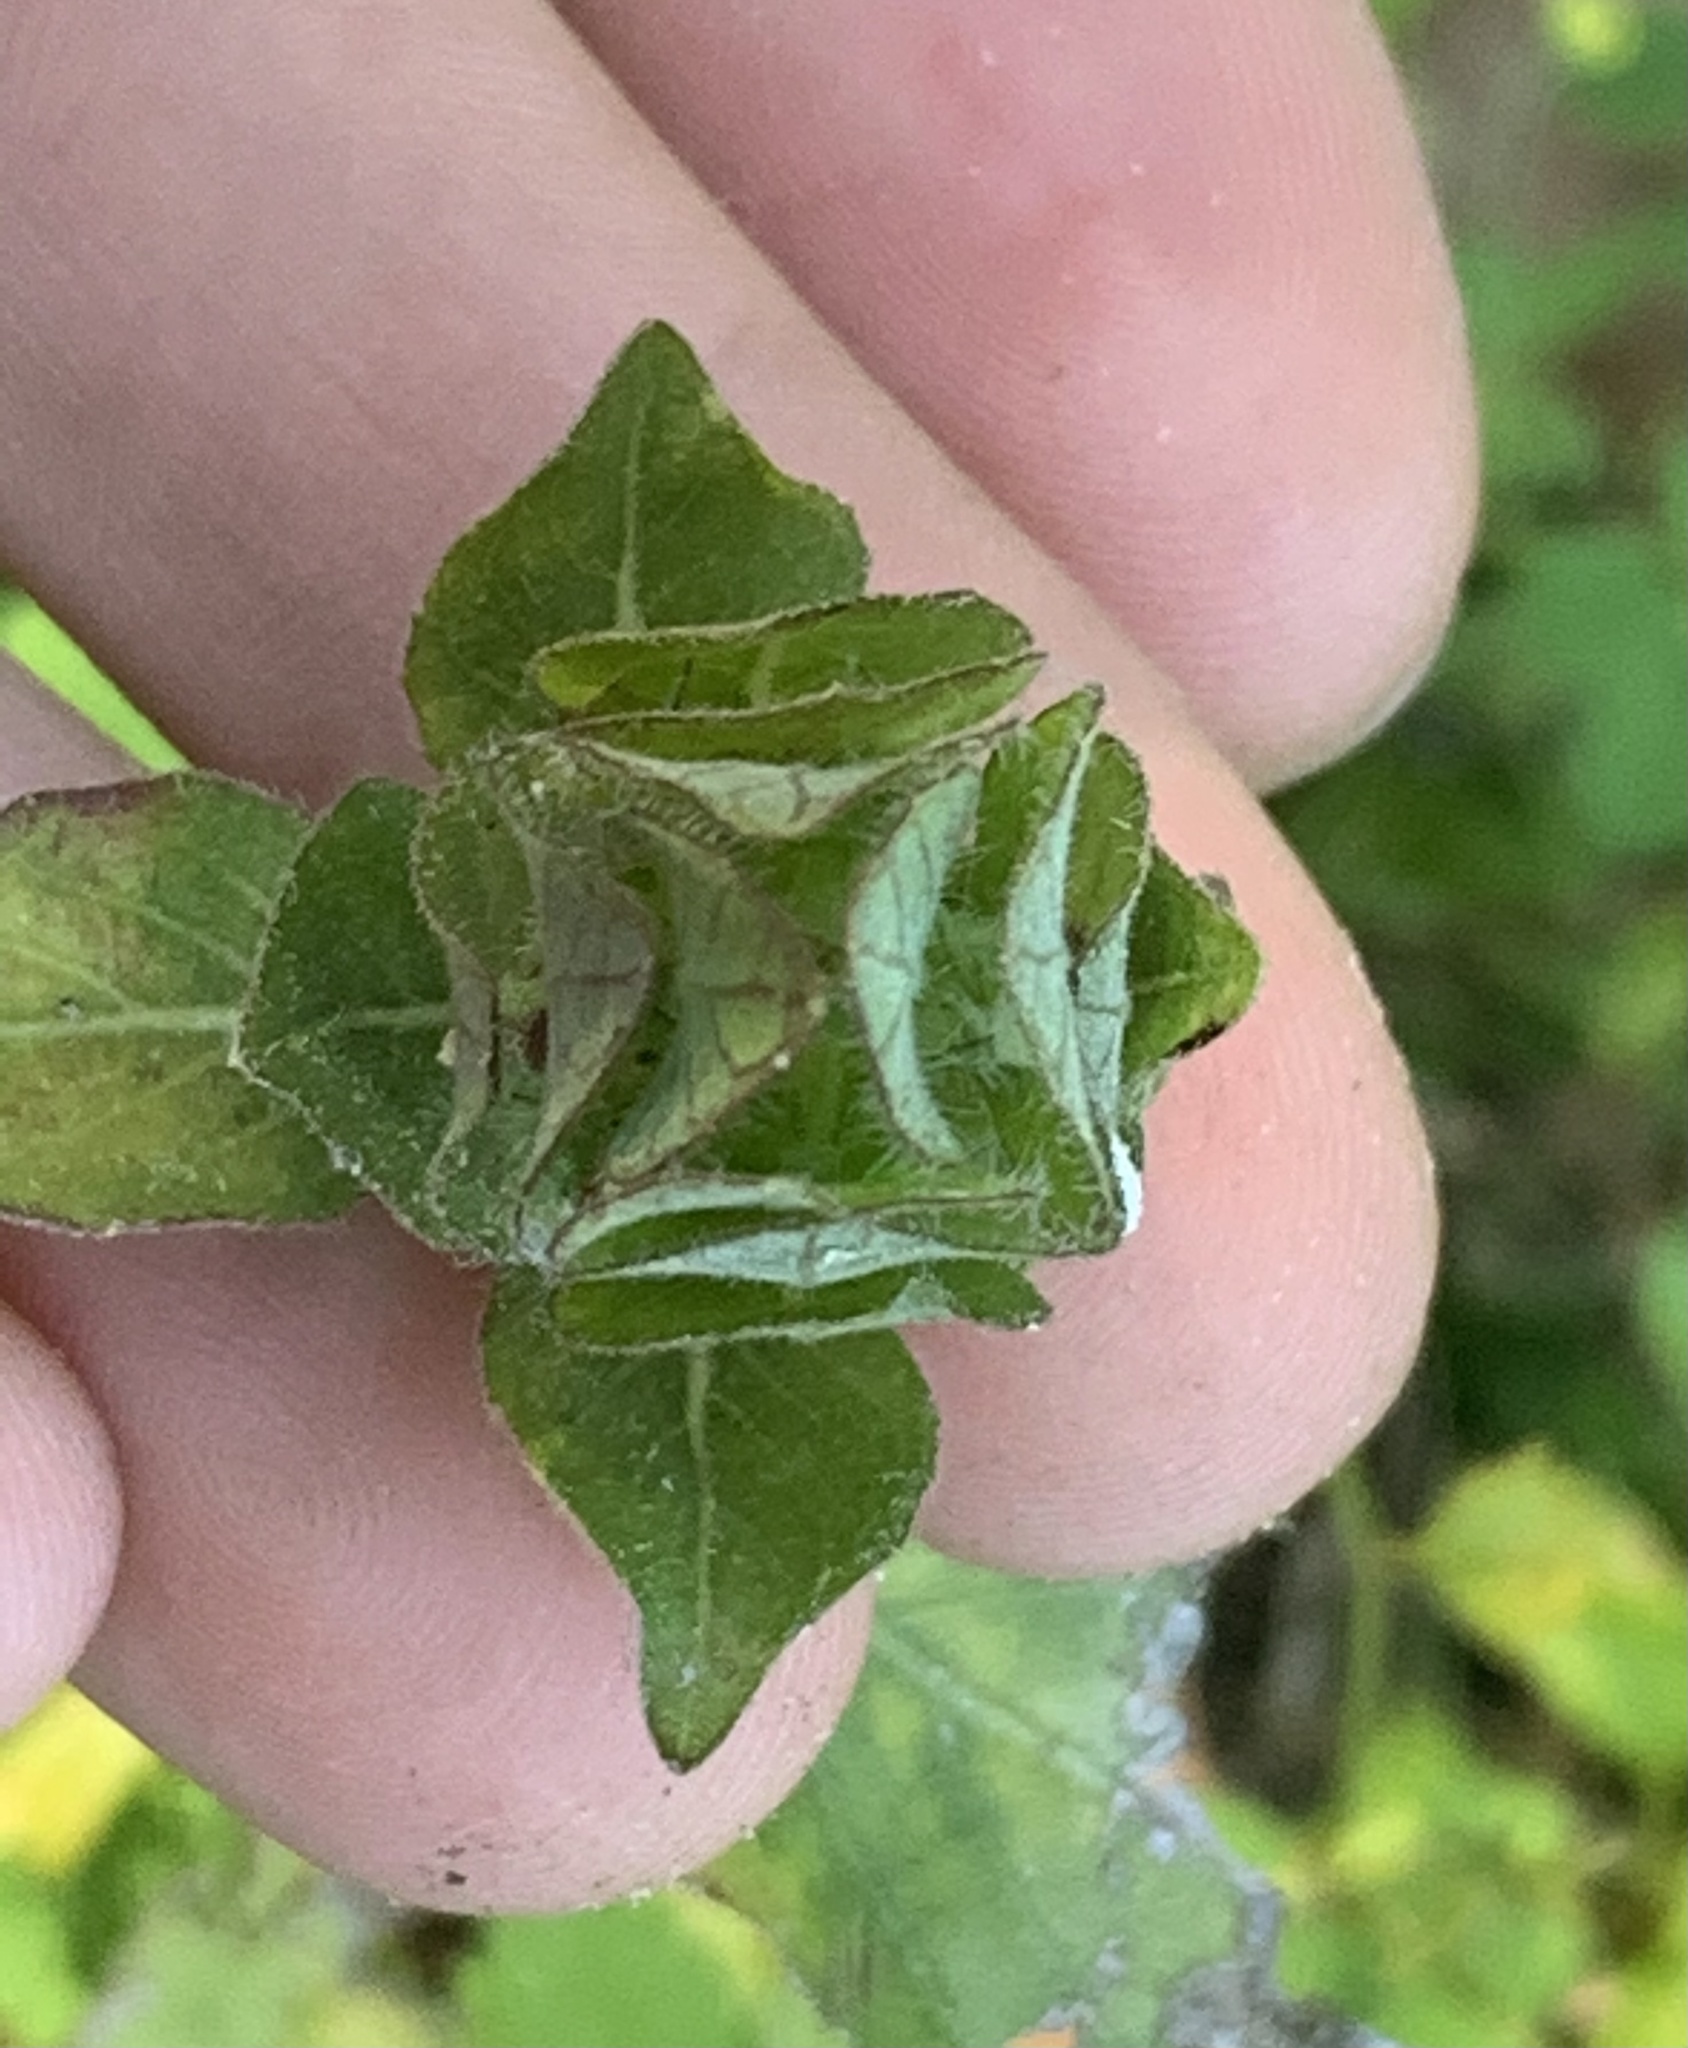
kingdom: Plantae
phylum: Tracheophyta
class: Magnoliopsida
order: Lamiales
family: Acanthaceae
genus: Ruellia
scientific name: Ruellia blechum
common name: Browne's blechum
